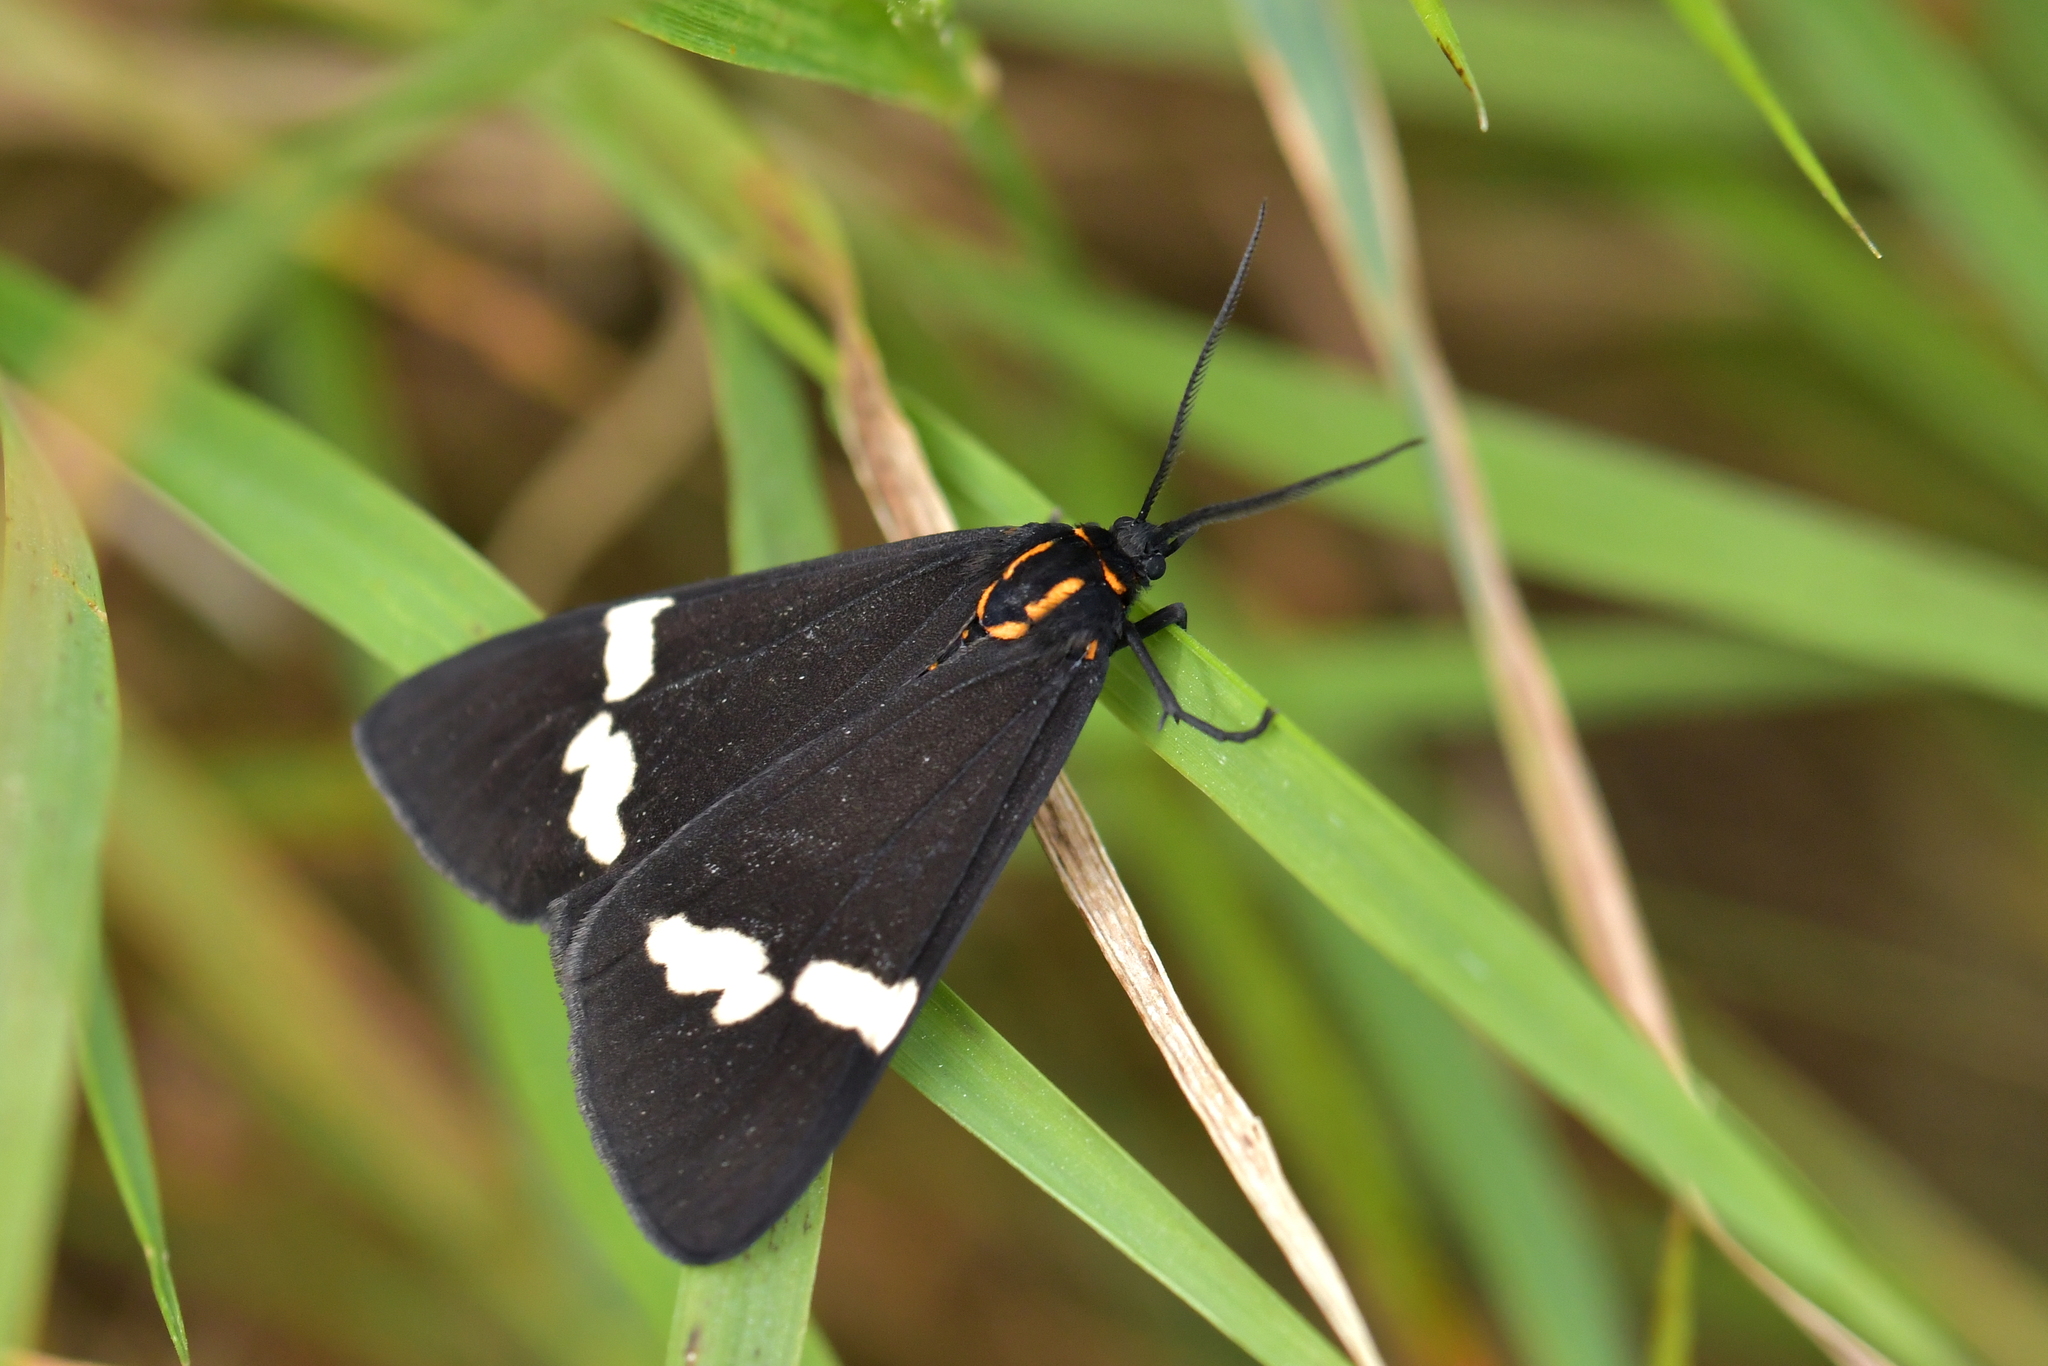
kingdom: Animalia
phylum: Arthropoda
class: Insecta
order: Lepidoptera
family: Erebidae
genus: Nyctemera
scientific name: Nyctemera annulatum
